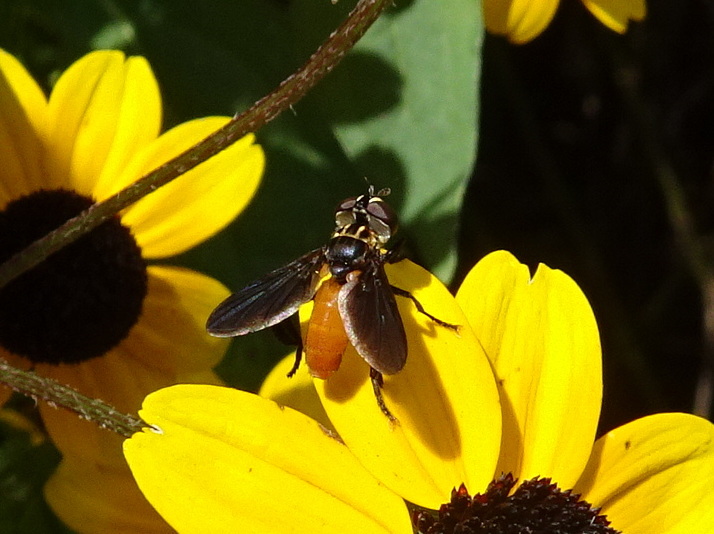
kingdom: Animalia
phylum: Arthropoda
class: Insecta
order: Diptera
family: Tachinidae
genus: Trichopoda
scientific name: Trichopoda pennipes
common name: Tachinid fly
